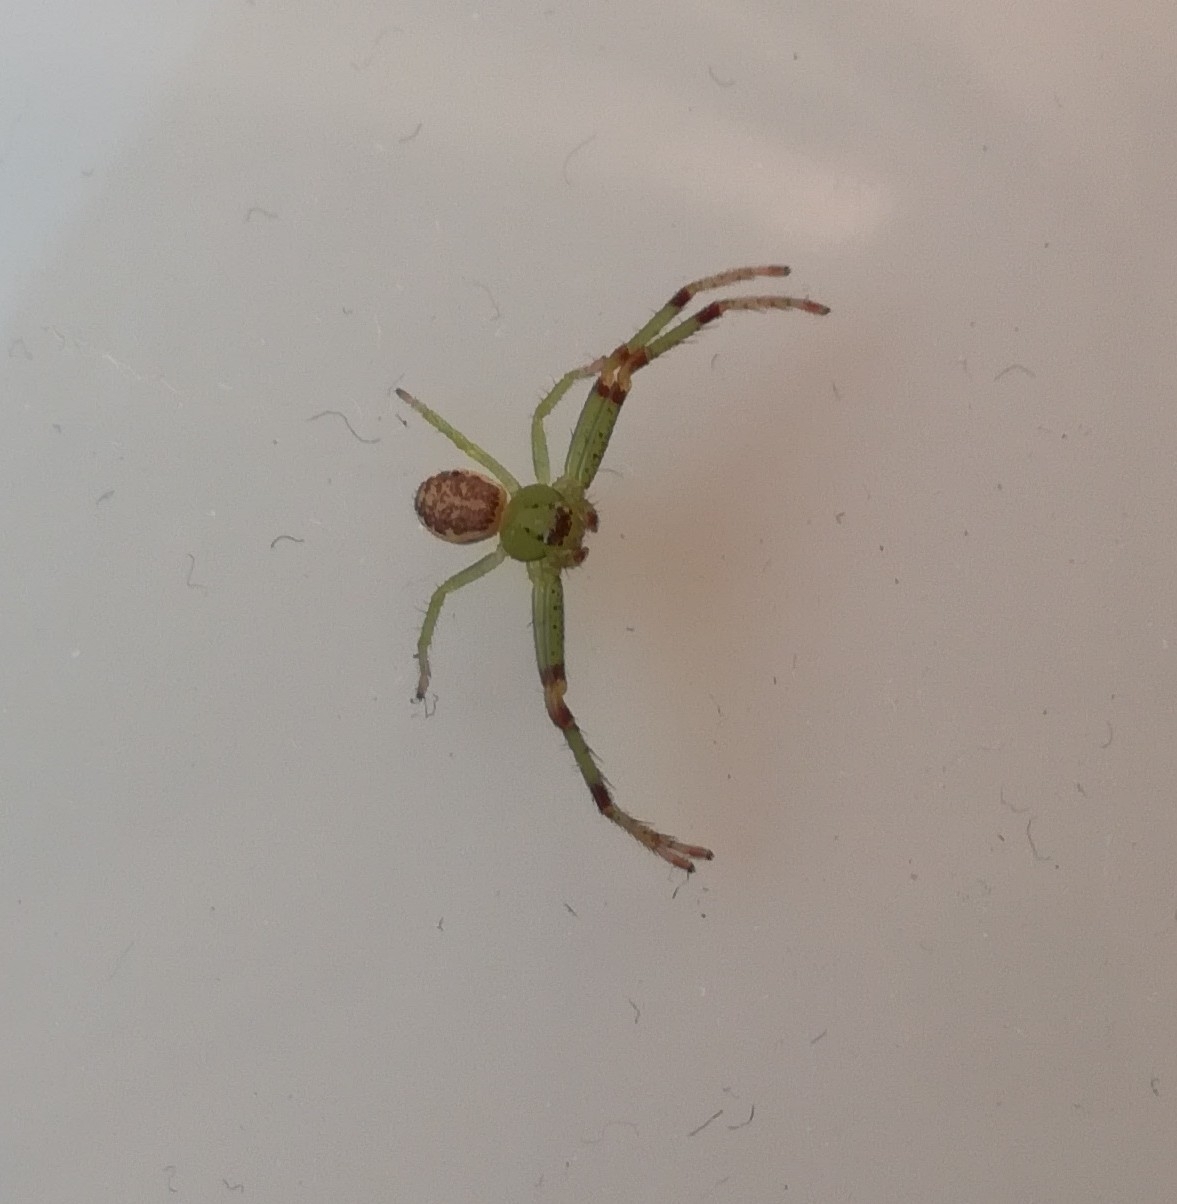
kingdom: Animalia
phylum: Arthropoda
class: Arachnida
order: Araneae
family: Thomisidae
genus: Diaea
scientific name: Diaea dorsata
